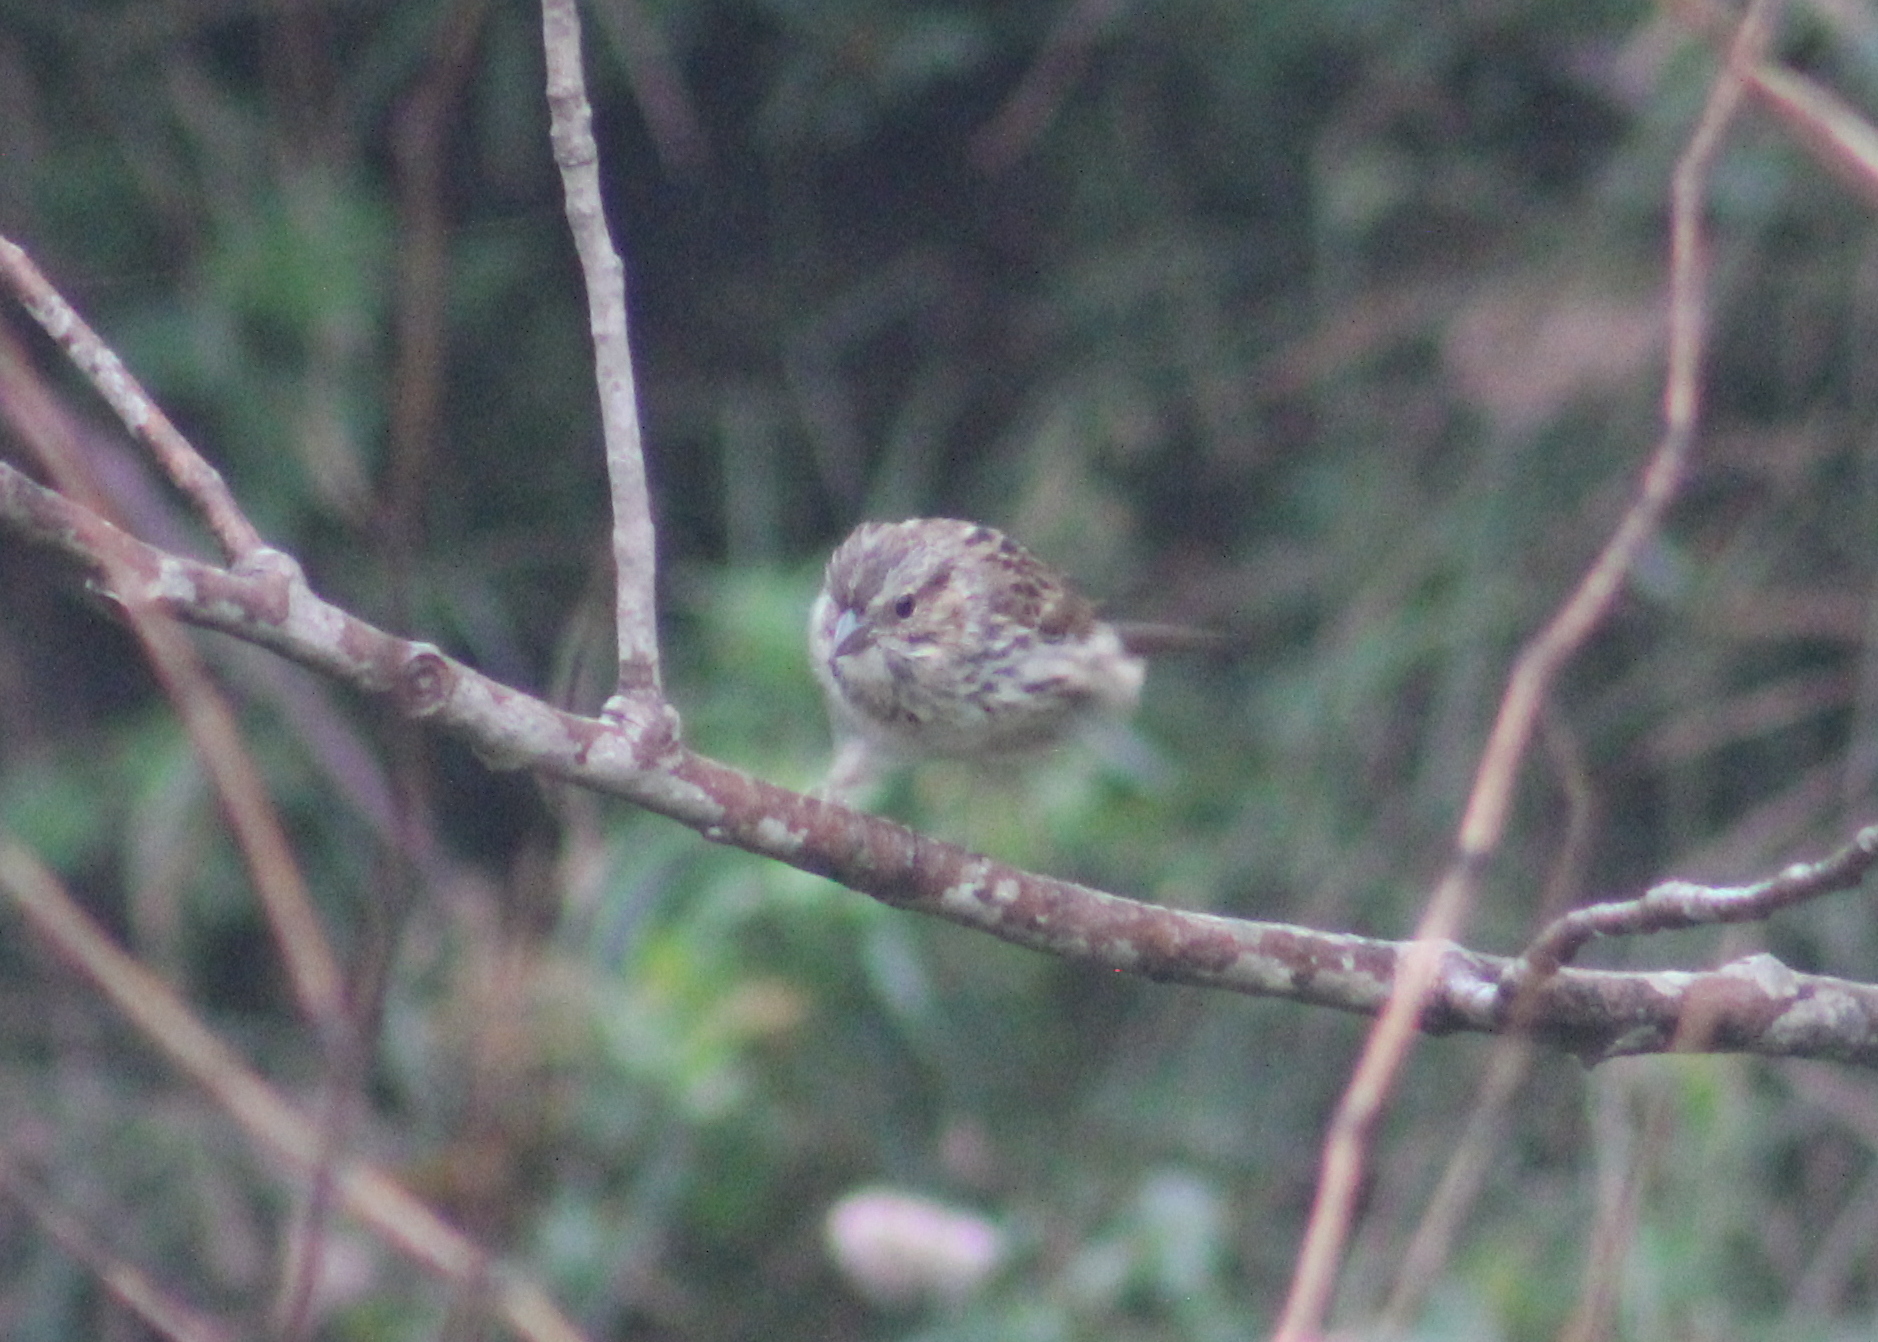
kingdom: Animalia
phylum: Chordata
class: Aves
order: Passeriformes
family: Passerellidae
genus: Melospiza
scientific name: Melospiza melodia
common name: Song sparrow
